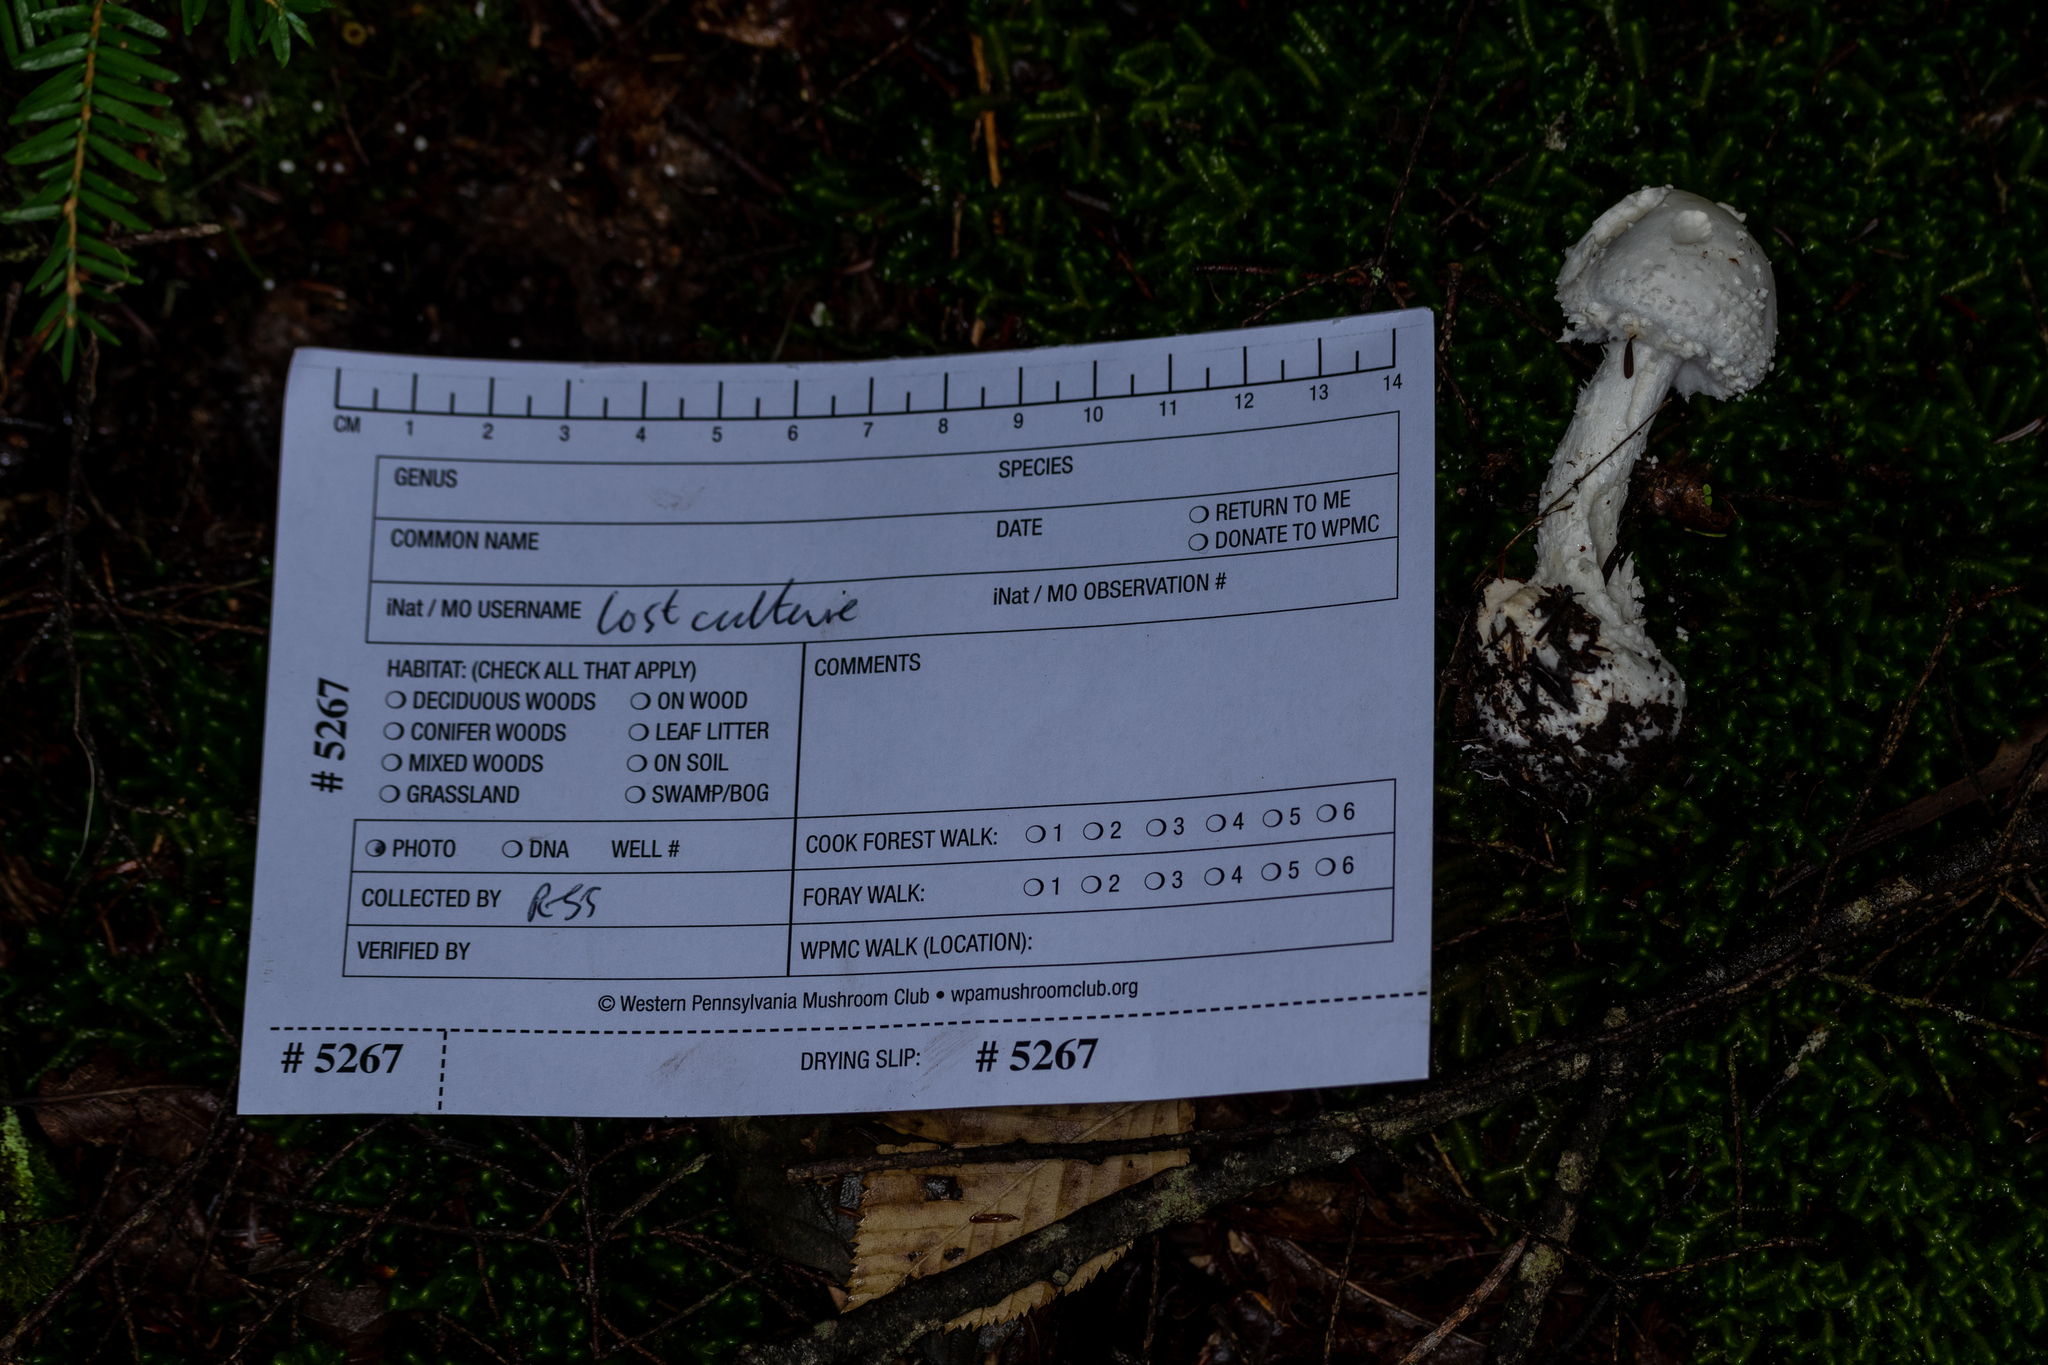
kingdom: Fungi
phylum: Basidiomycota
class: Agaricomycetes
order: Agaricales
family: Amanitaceae
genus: Amanita
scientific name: Amanita abrupta
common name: American abrupt-bulbed lepidella
